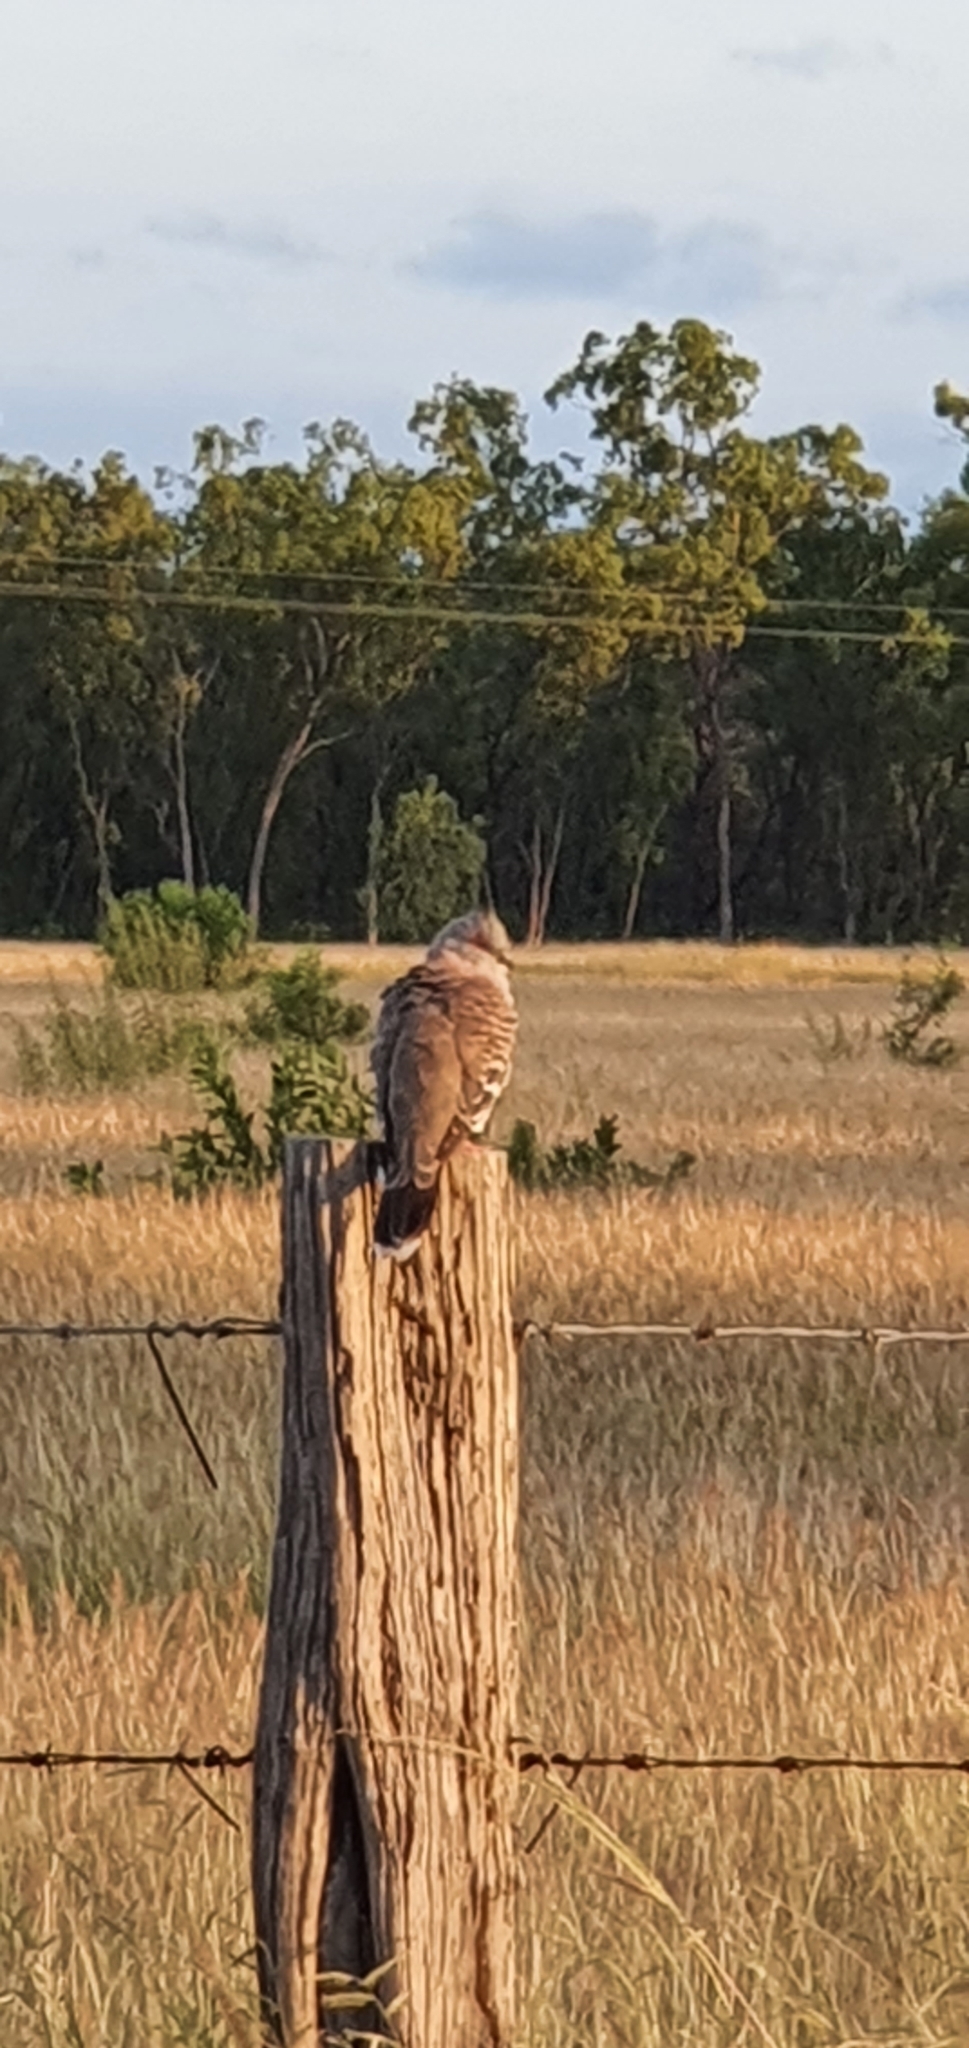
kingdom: Animalia
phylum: Chordata
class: Aves
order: Columbiformes
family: Columbidae
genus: Ocyphaps
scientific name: Ocyphaps lophotes
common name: Crested pigeon
